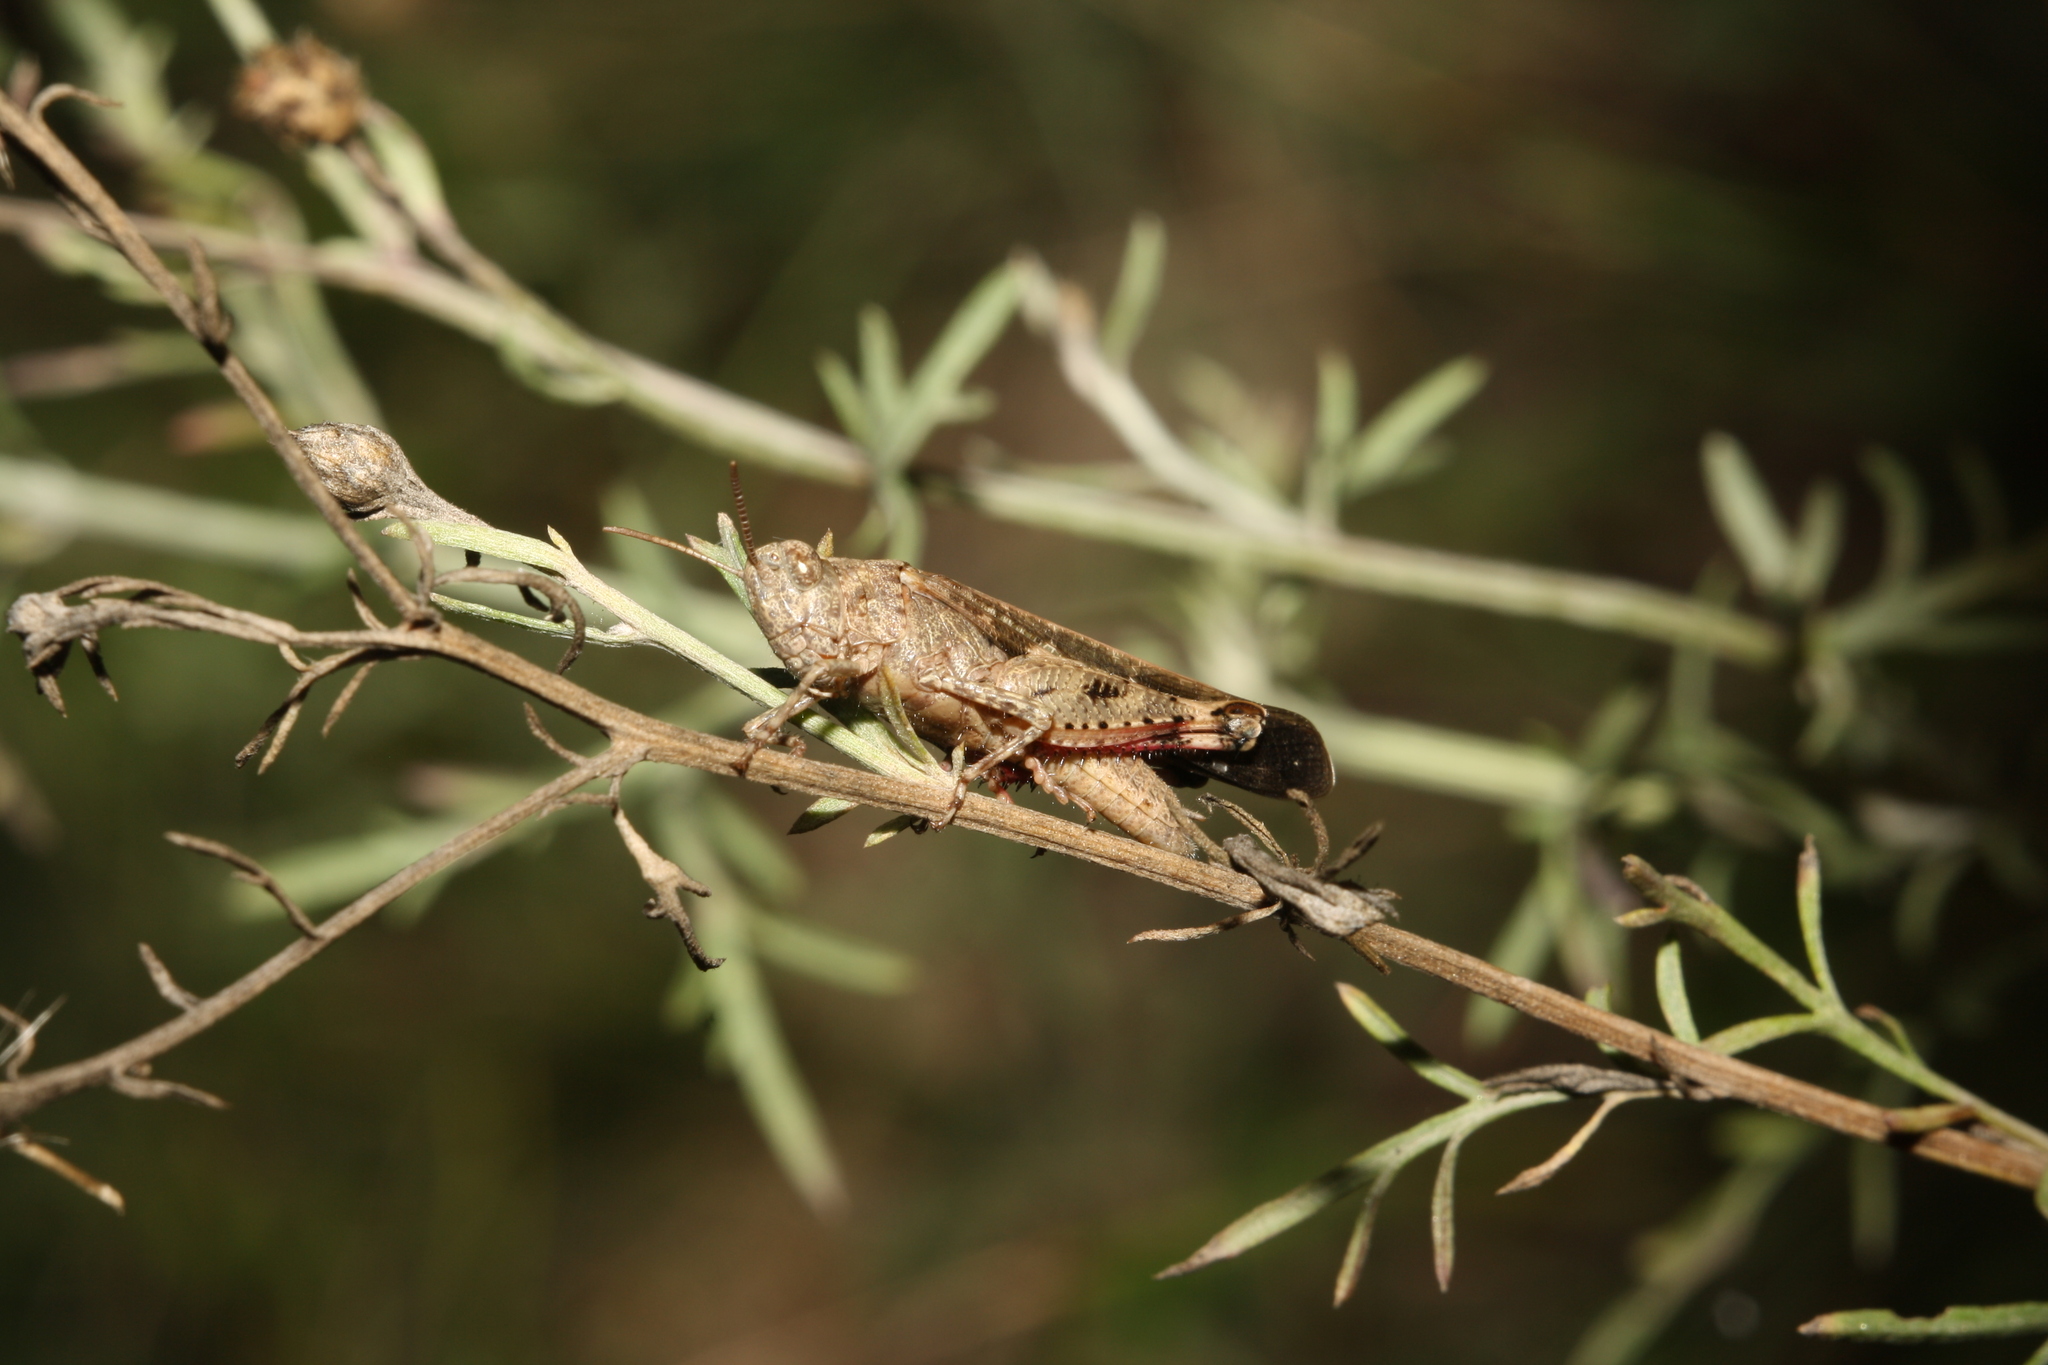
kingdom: Animalia
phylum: Arthropoda
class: Insecta
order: Orthoptera
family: Acrididae
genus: Aiolopus
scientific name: Aiolopus strepens
